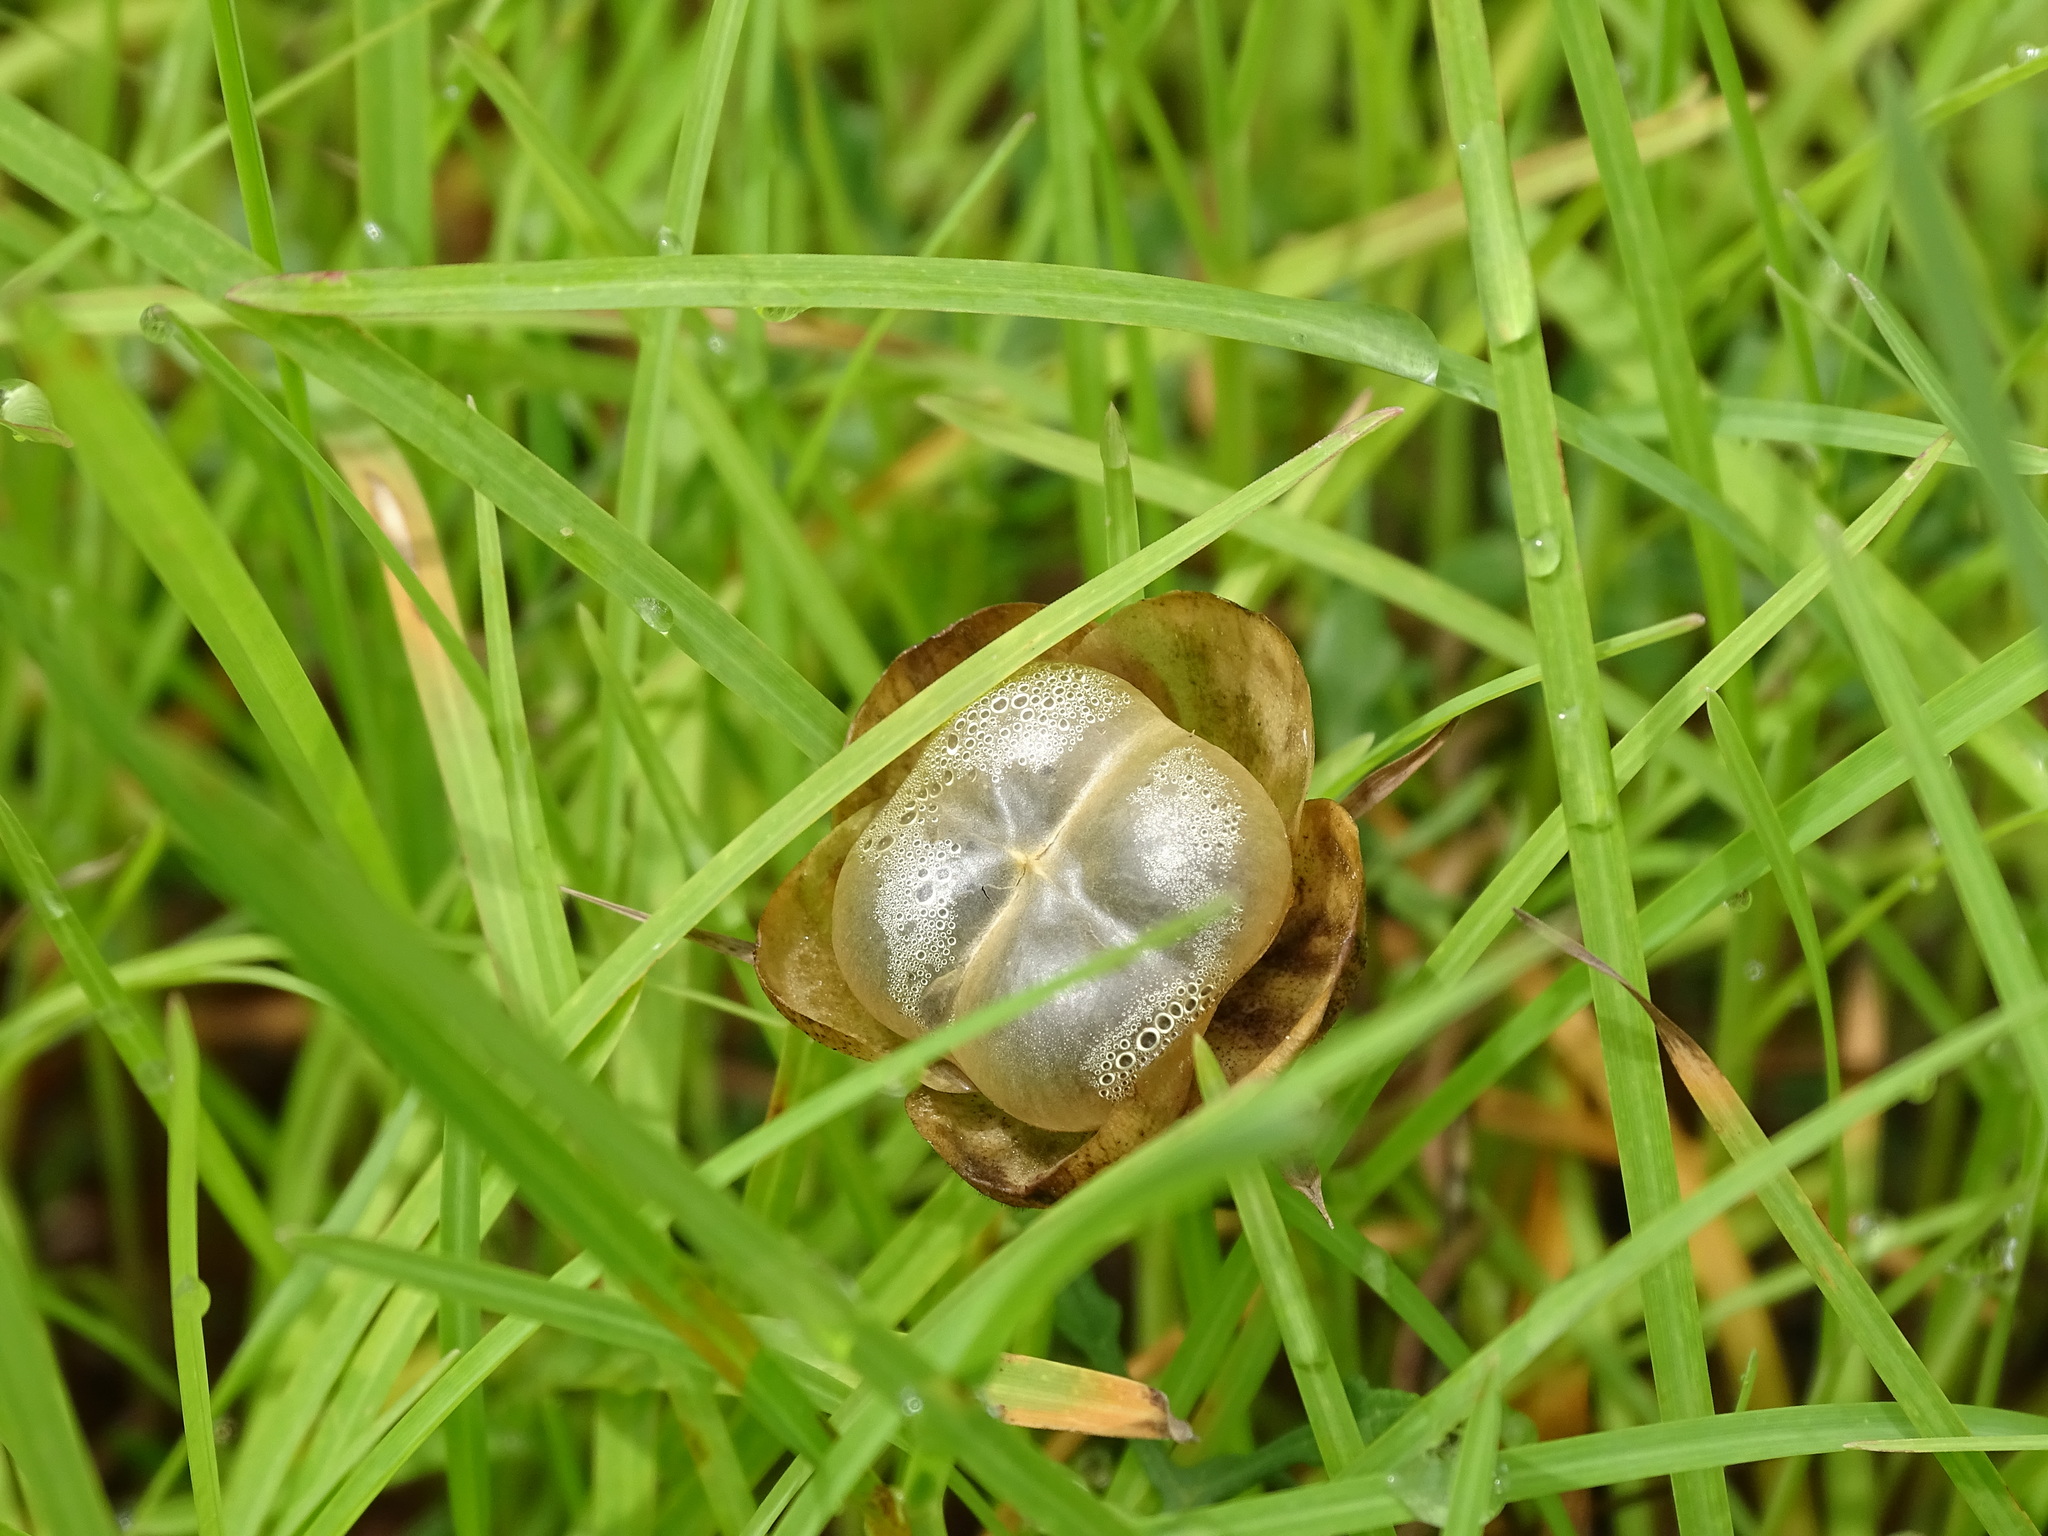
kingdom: Plantae
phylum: Tracheophyta
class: Magnoliopsida
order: Solanales
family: Convolvulaceae
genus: Operculina
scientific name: Operculina pinnatifida
